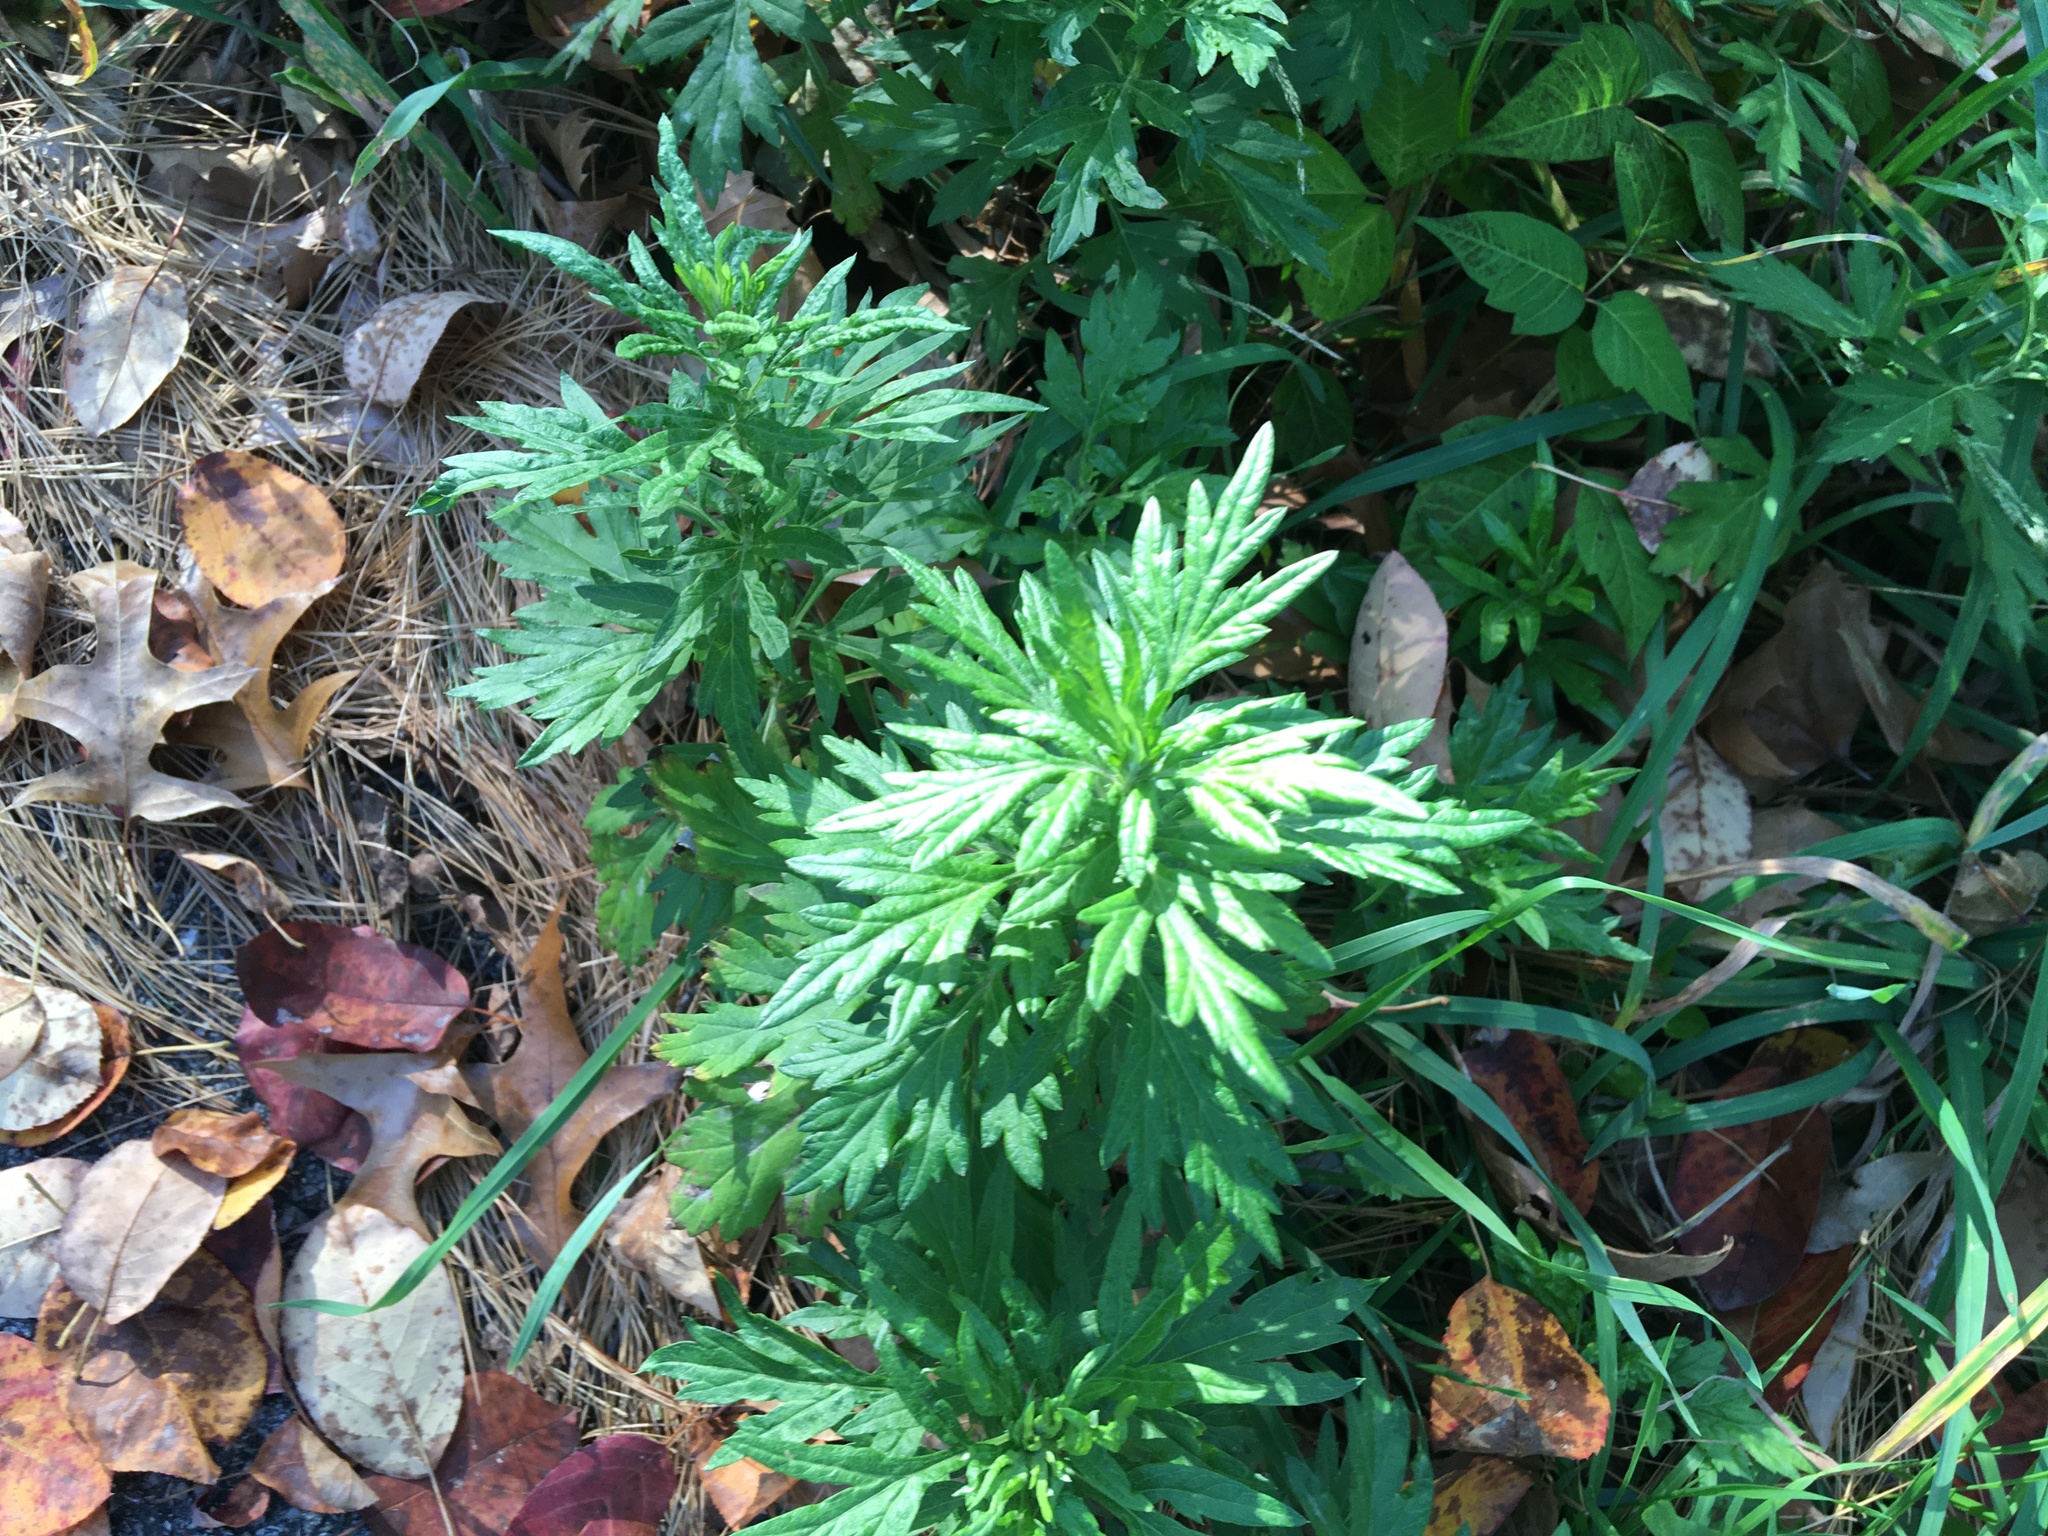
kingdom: Plantae
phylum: Tracheophyta
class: Magnoliopsida
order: Asterales
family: Asteraceae
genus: Artemisia
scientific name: Artemisia vulgaris
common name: Mugwort
